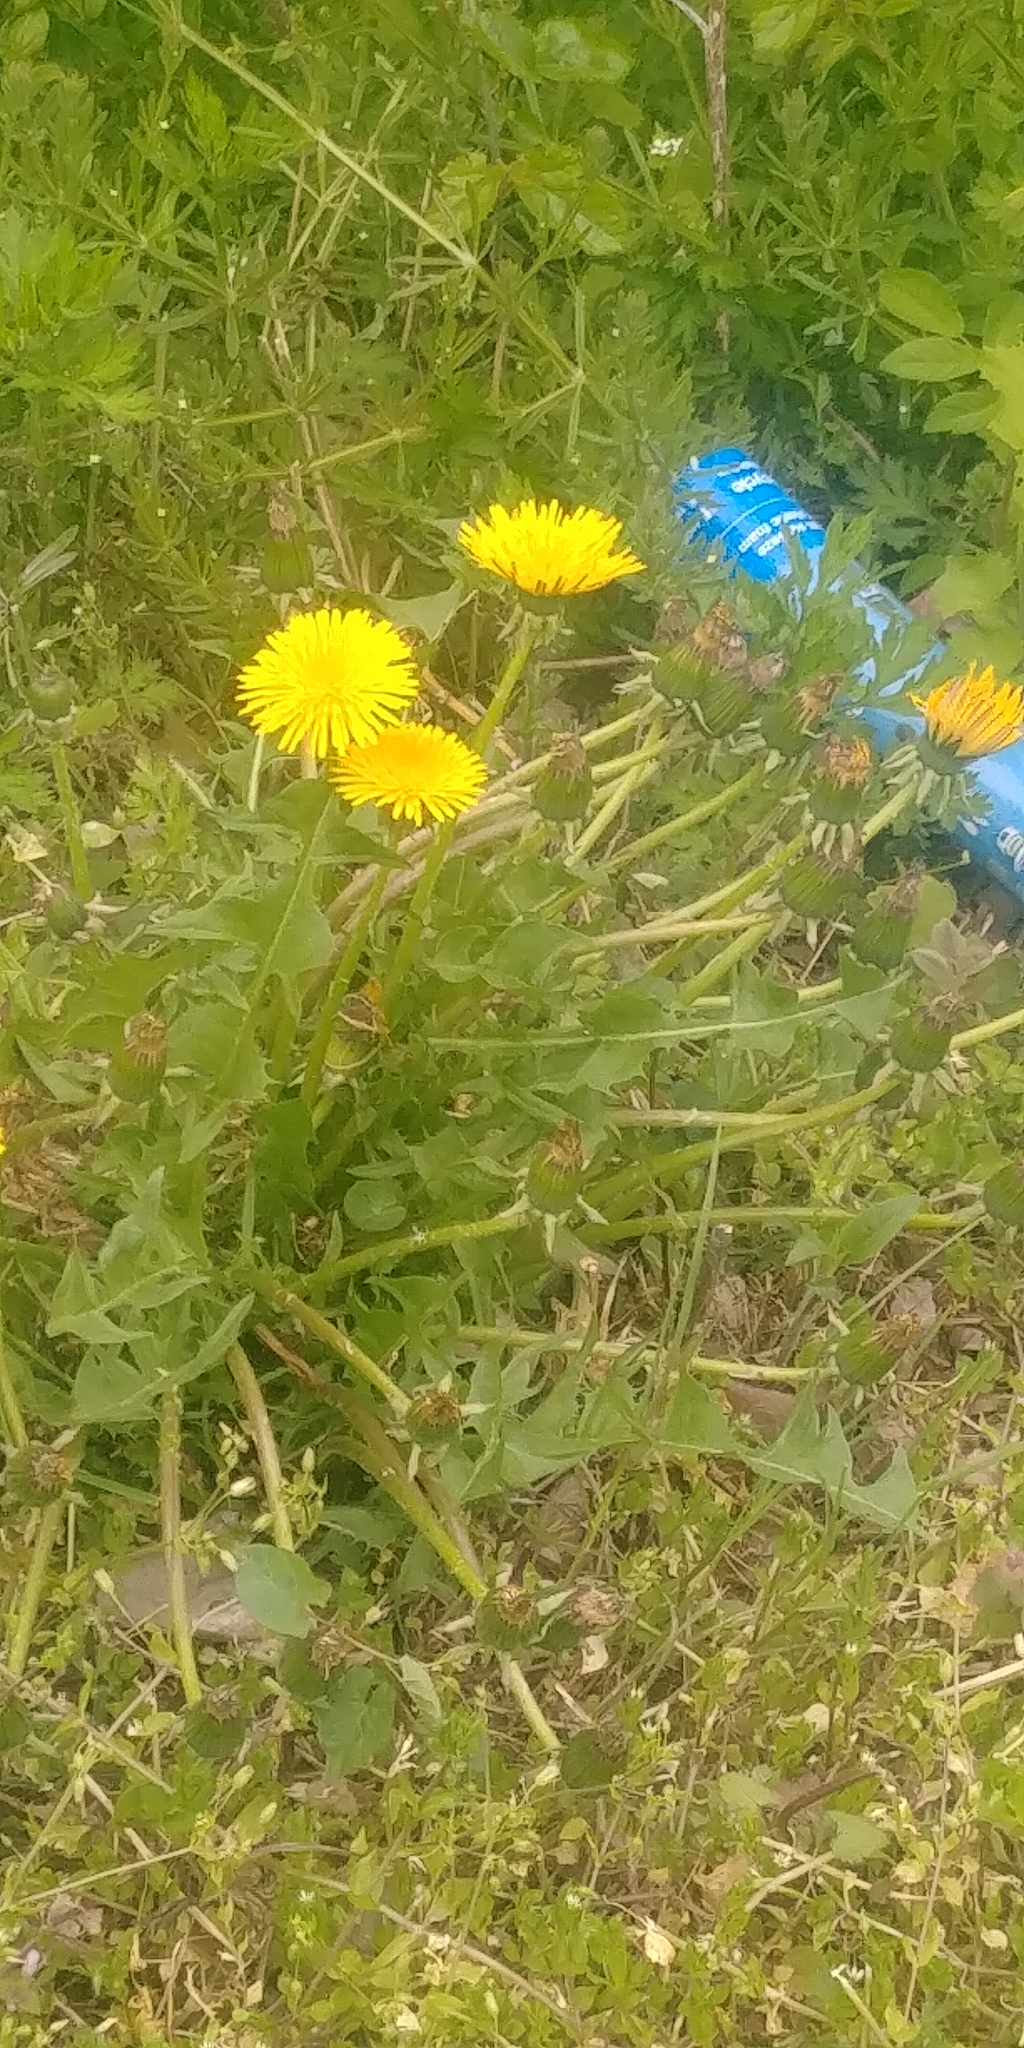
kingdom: Plantae
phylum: Tracheophyta
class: Magnoliopsida
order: Asterales
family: Asteraceae
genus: Taraxacum
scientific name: Taraxacum officinale
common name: Common dandelion
